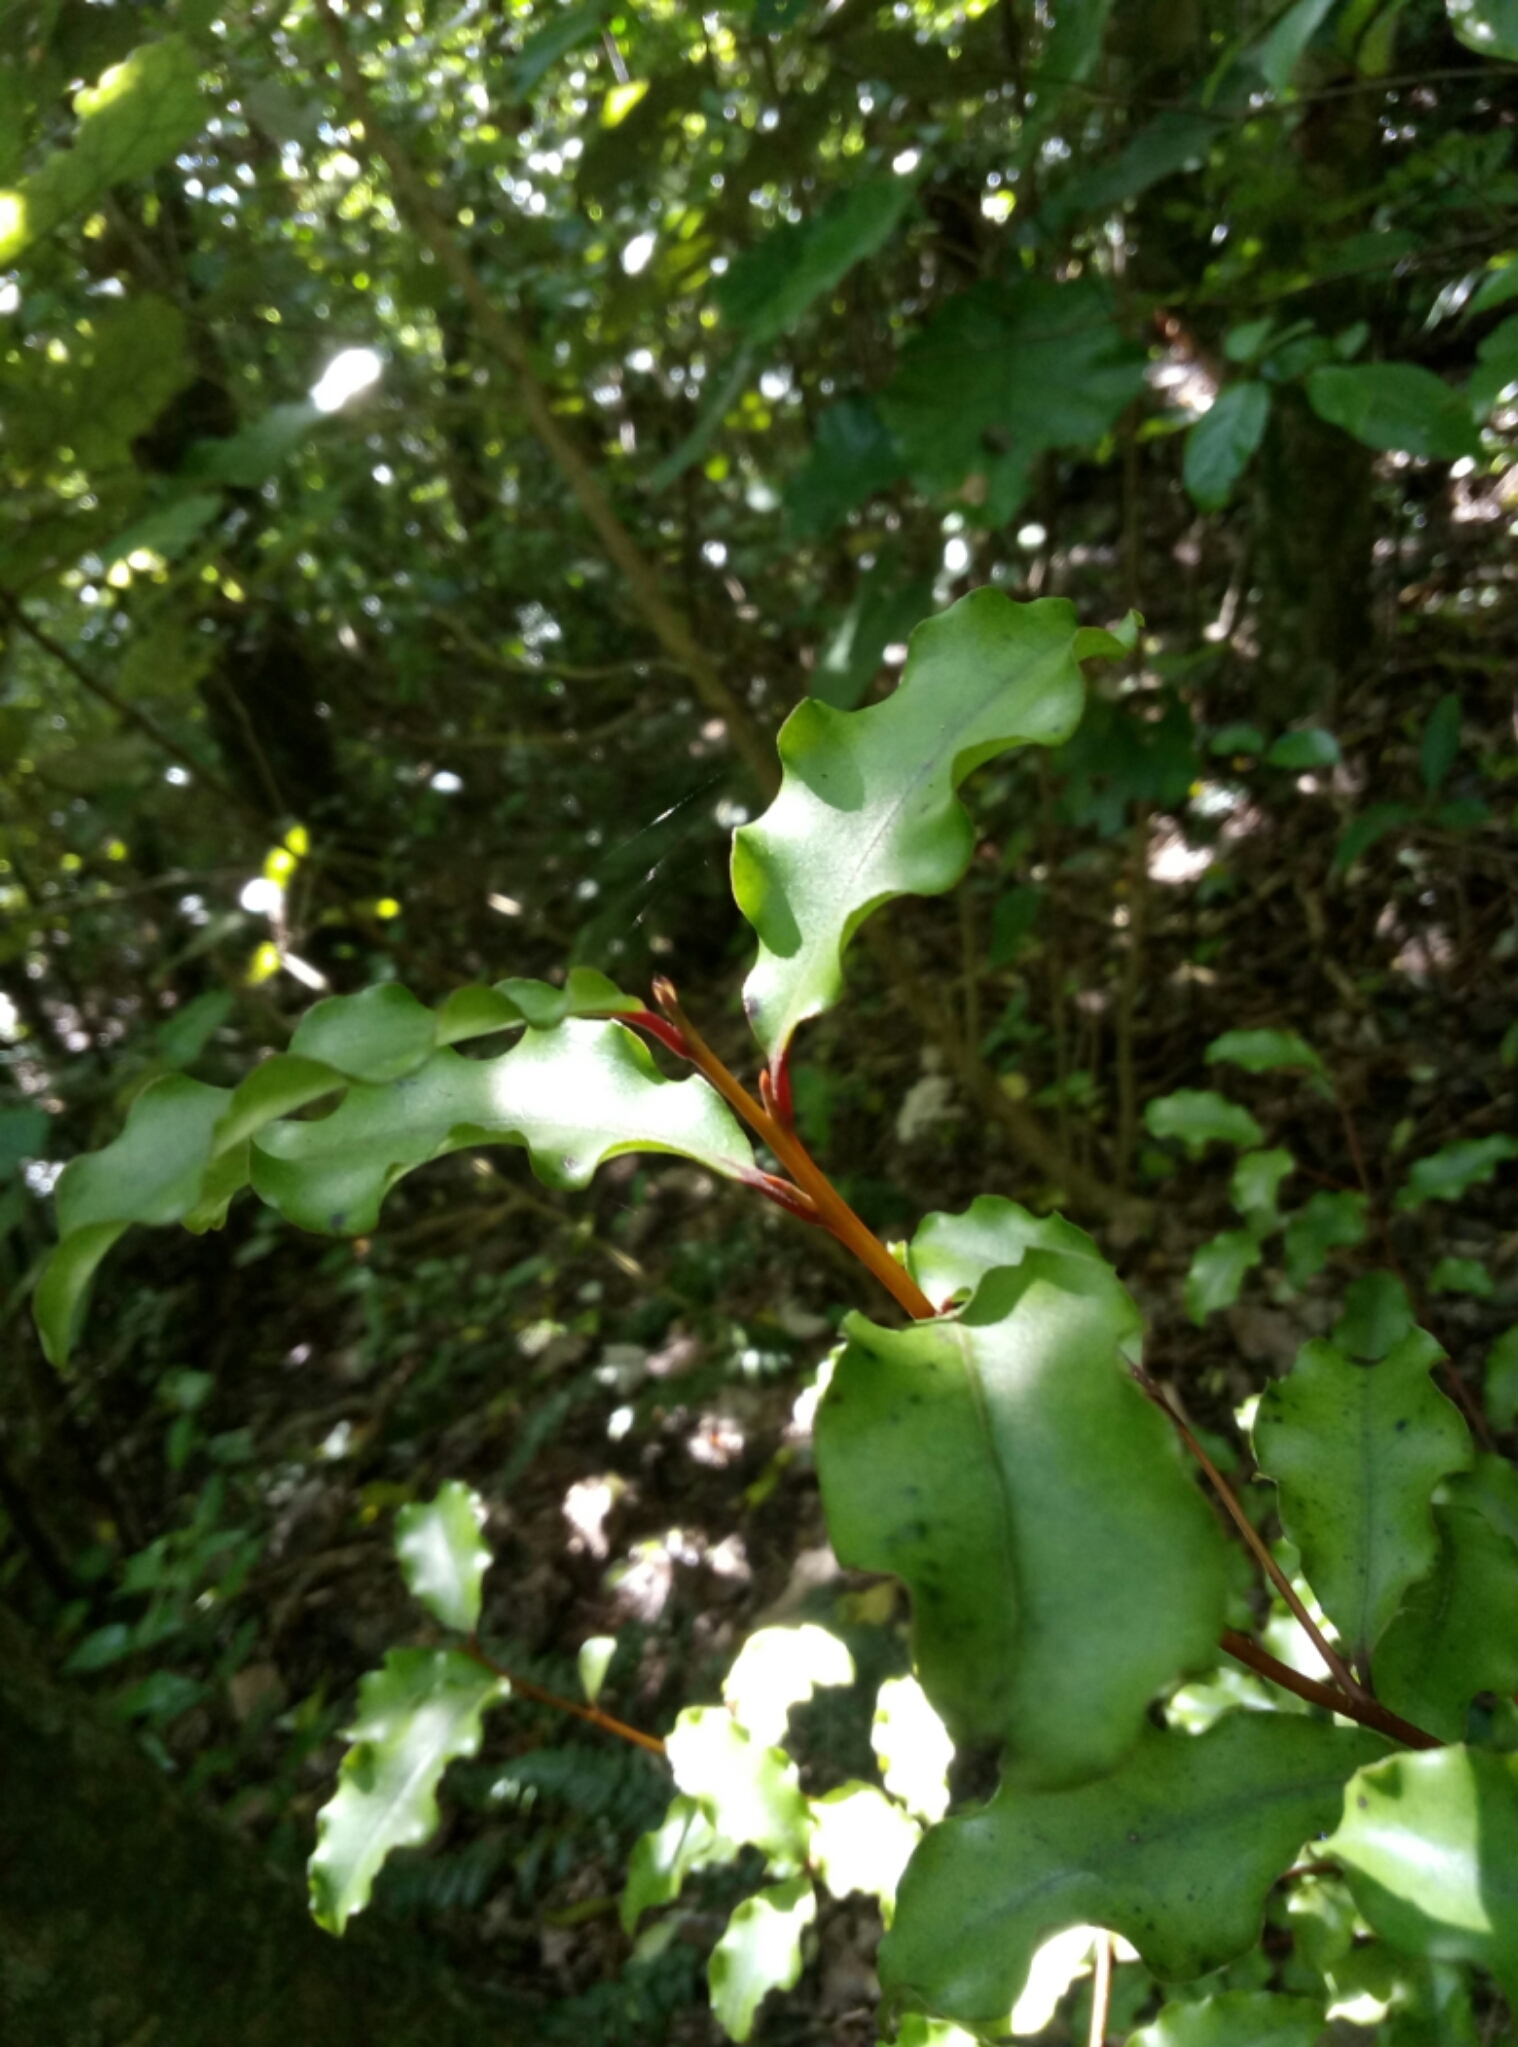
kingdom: Plantae
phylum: Tracheophyta
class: Magnoliopsida
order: Ericales
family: Primulaceae
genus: Myrsine
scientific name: Myrsine australis
